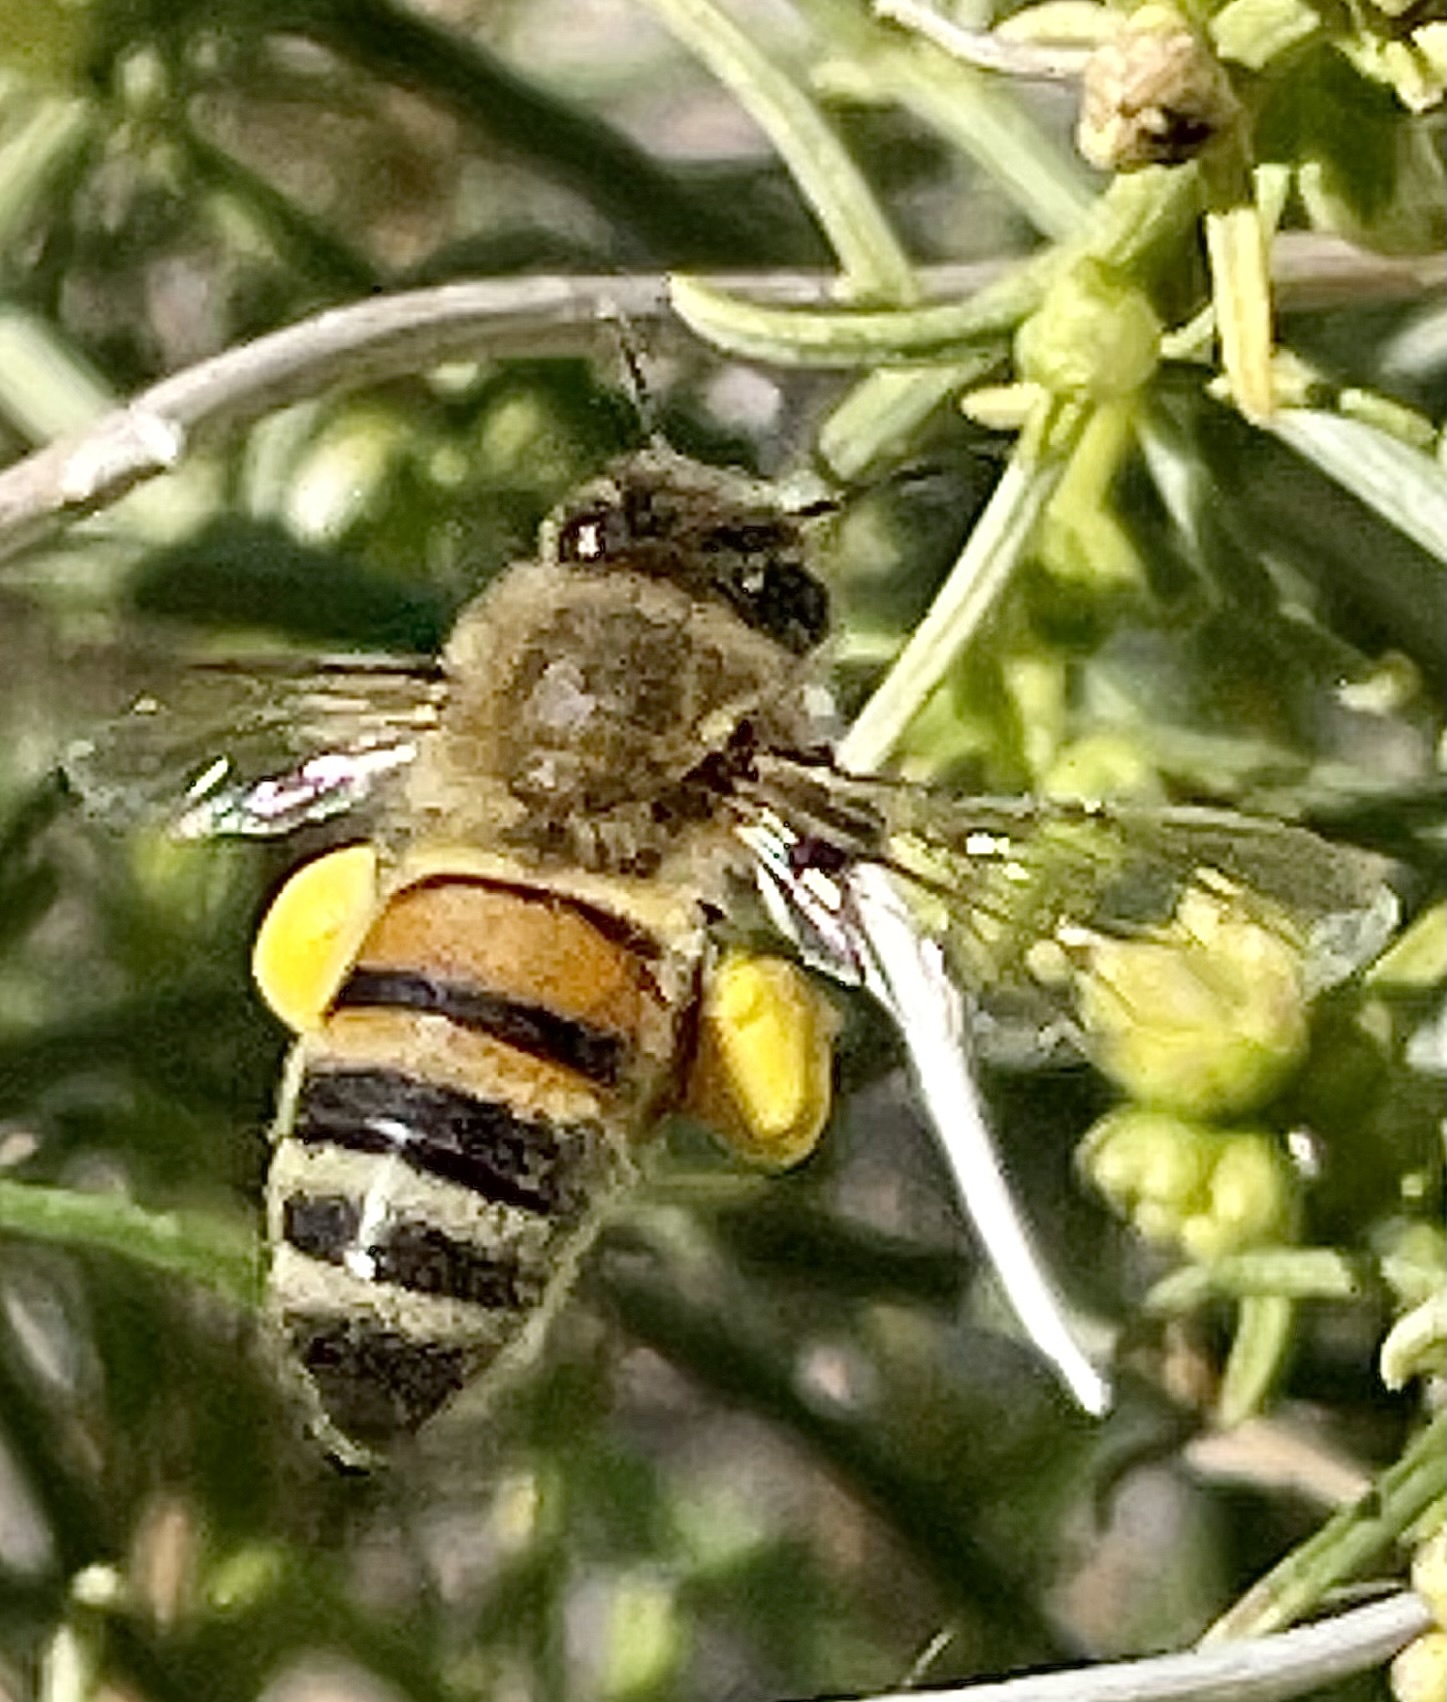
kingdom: Animalia
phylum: Arthropoda
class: Insecta
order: Hymenoptera
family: Apidae
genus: Apis
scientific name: Apis mellifera
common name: Honey bee
